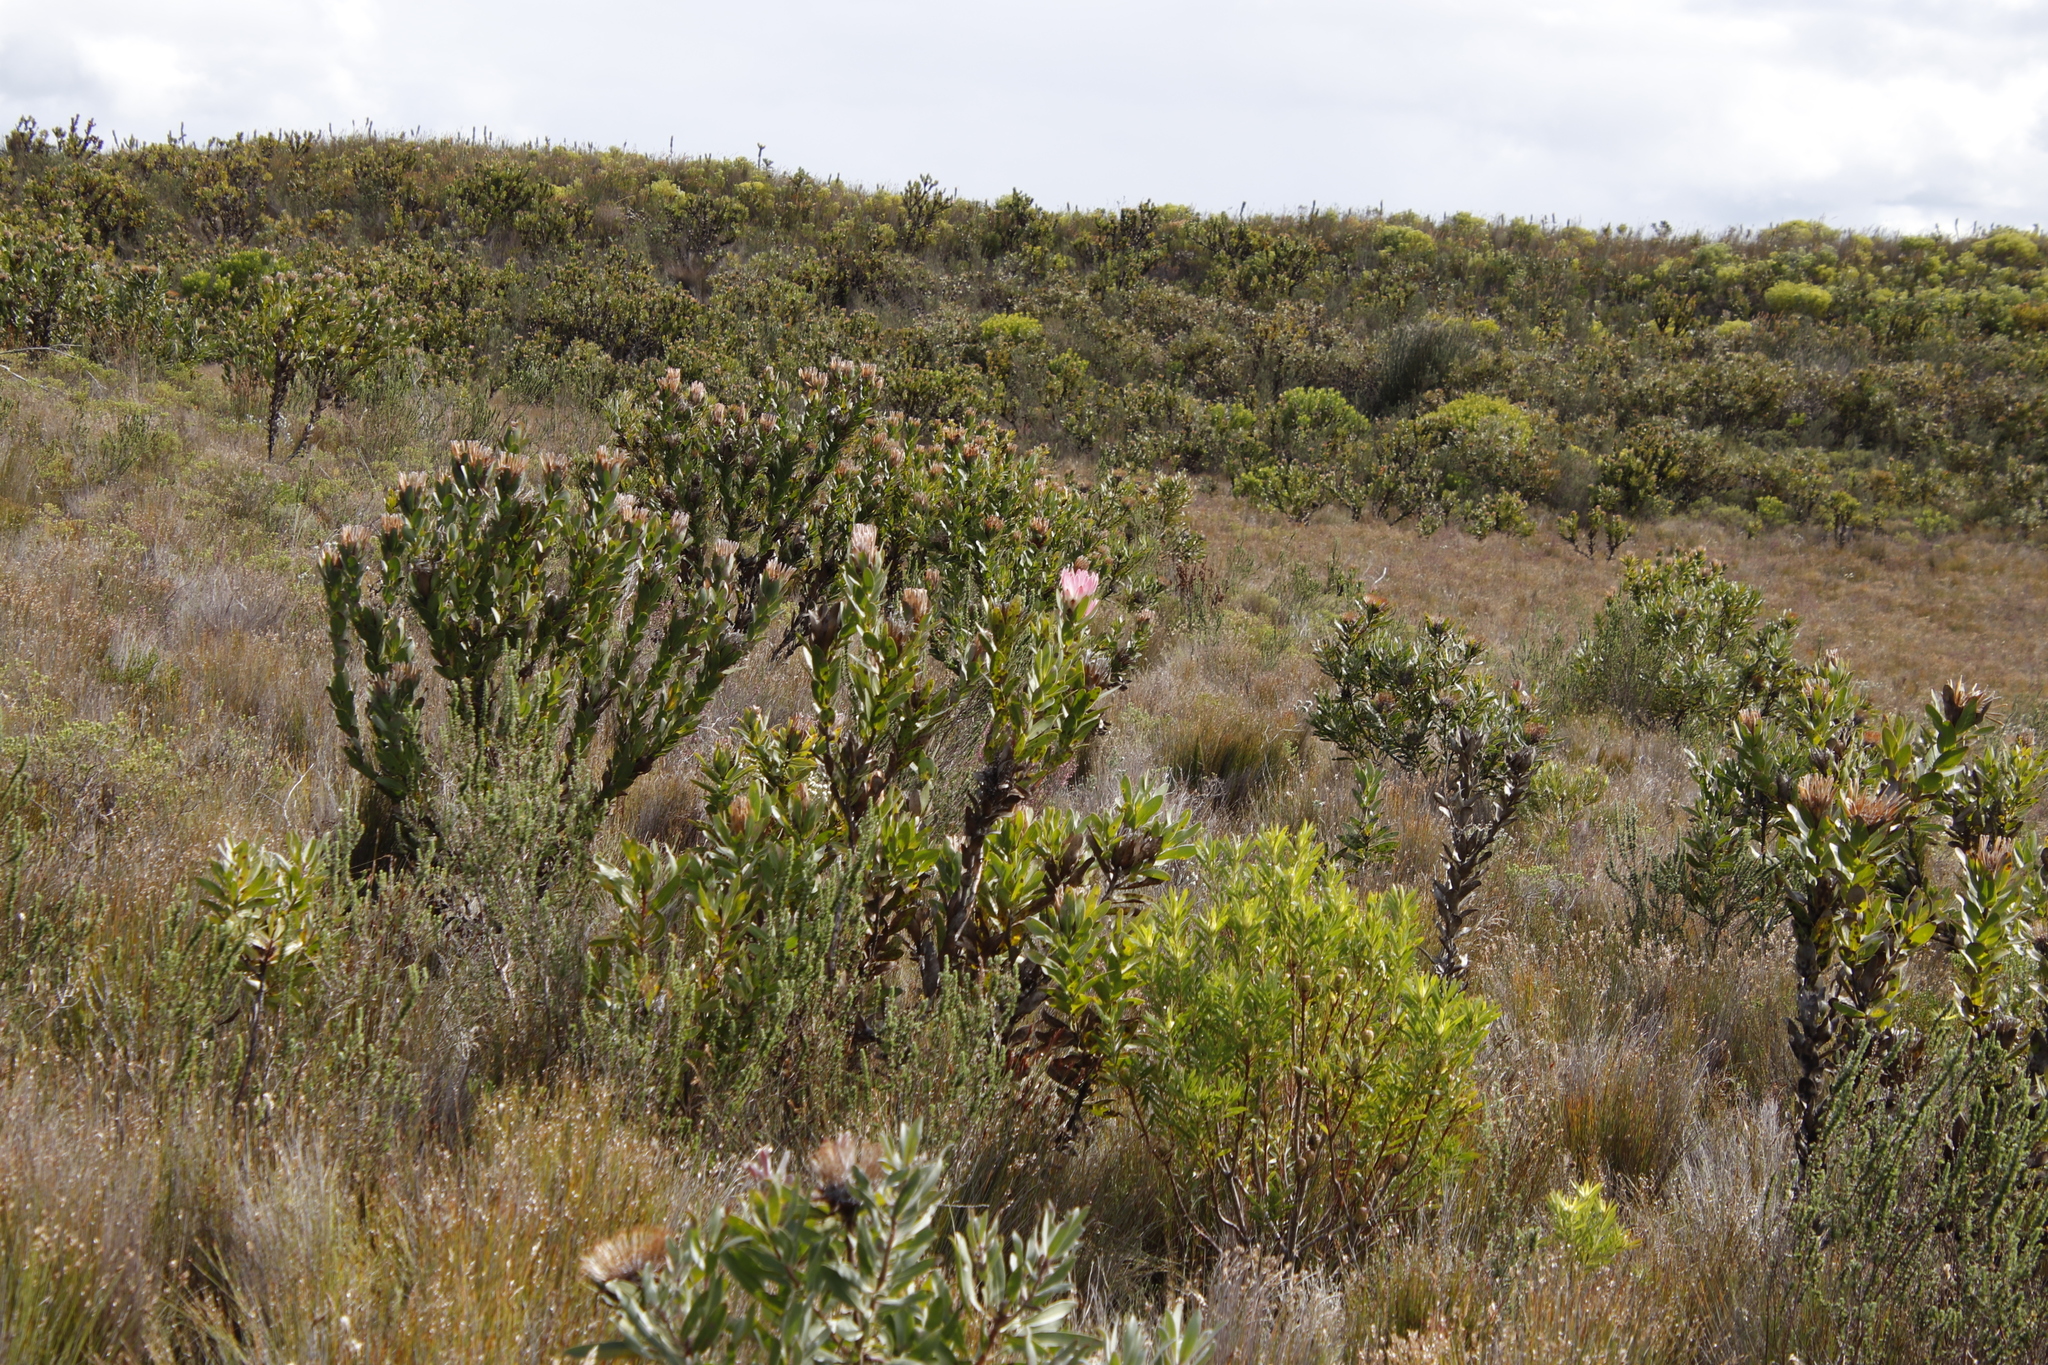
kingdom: Plantae
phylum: Tracheophyta
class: Magnoliopsida
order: Proteales
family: Proteaceae
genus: Protea
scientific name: Protea compacta
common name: Bot river protea
